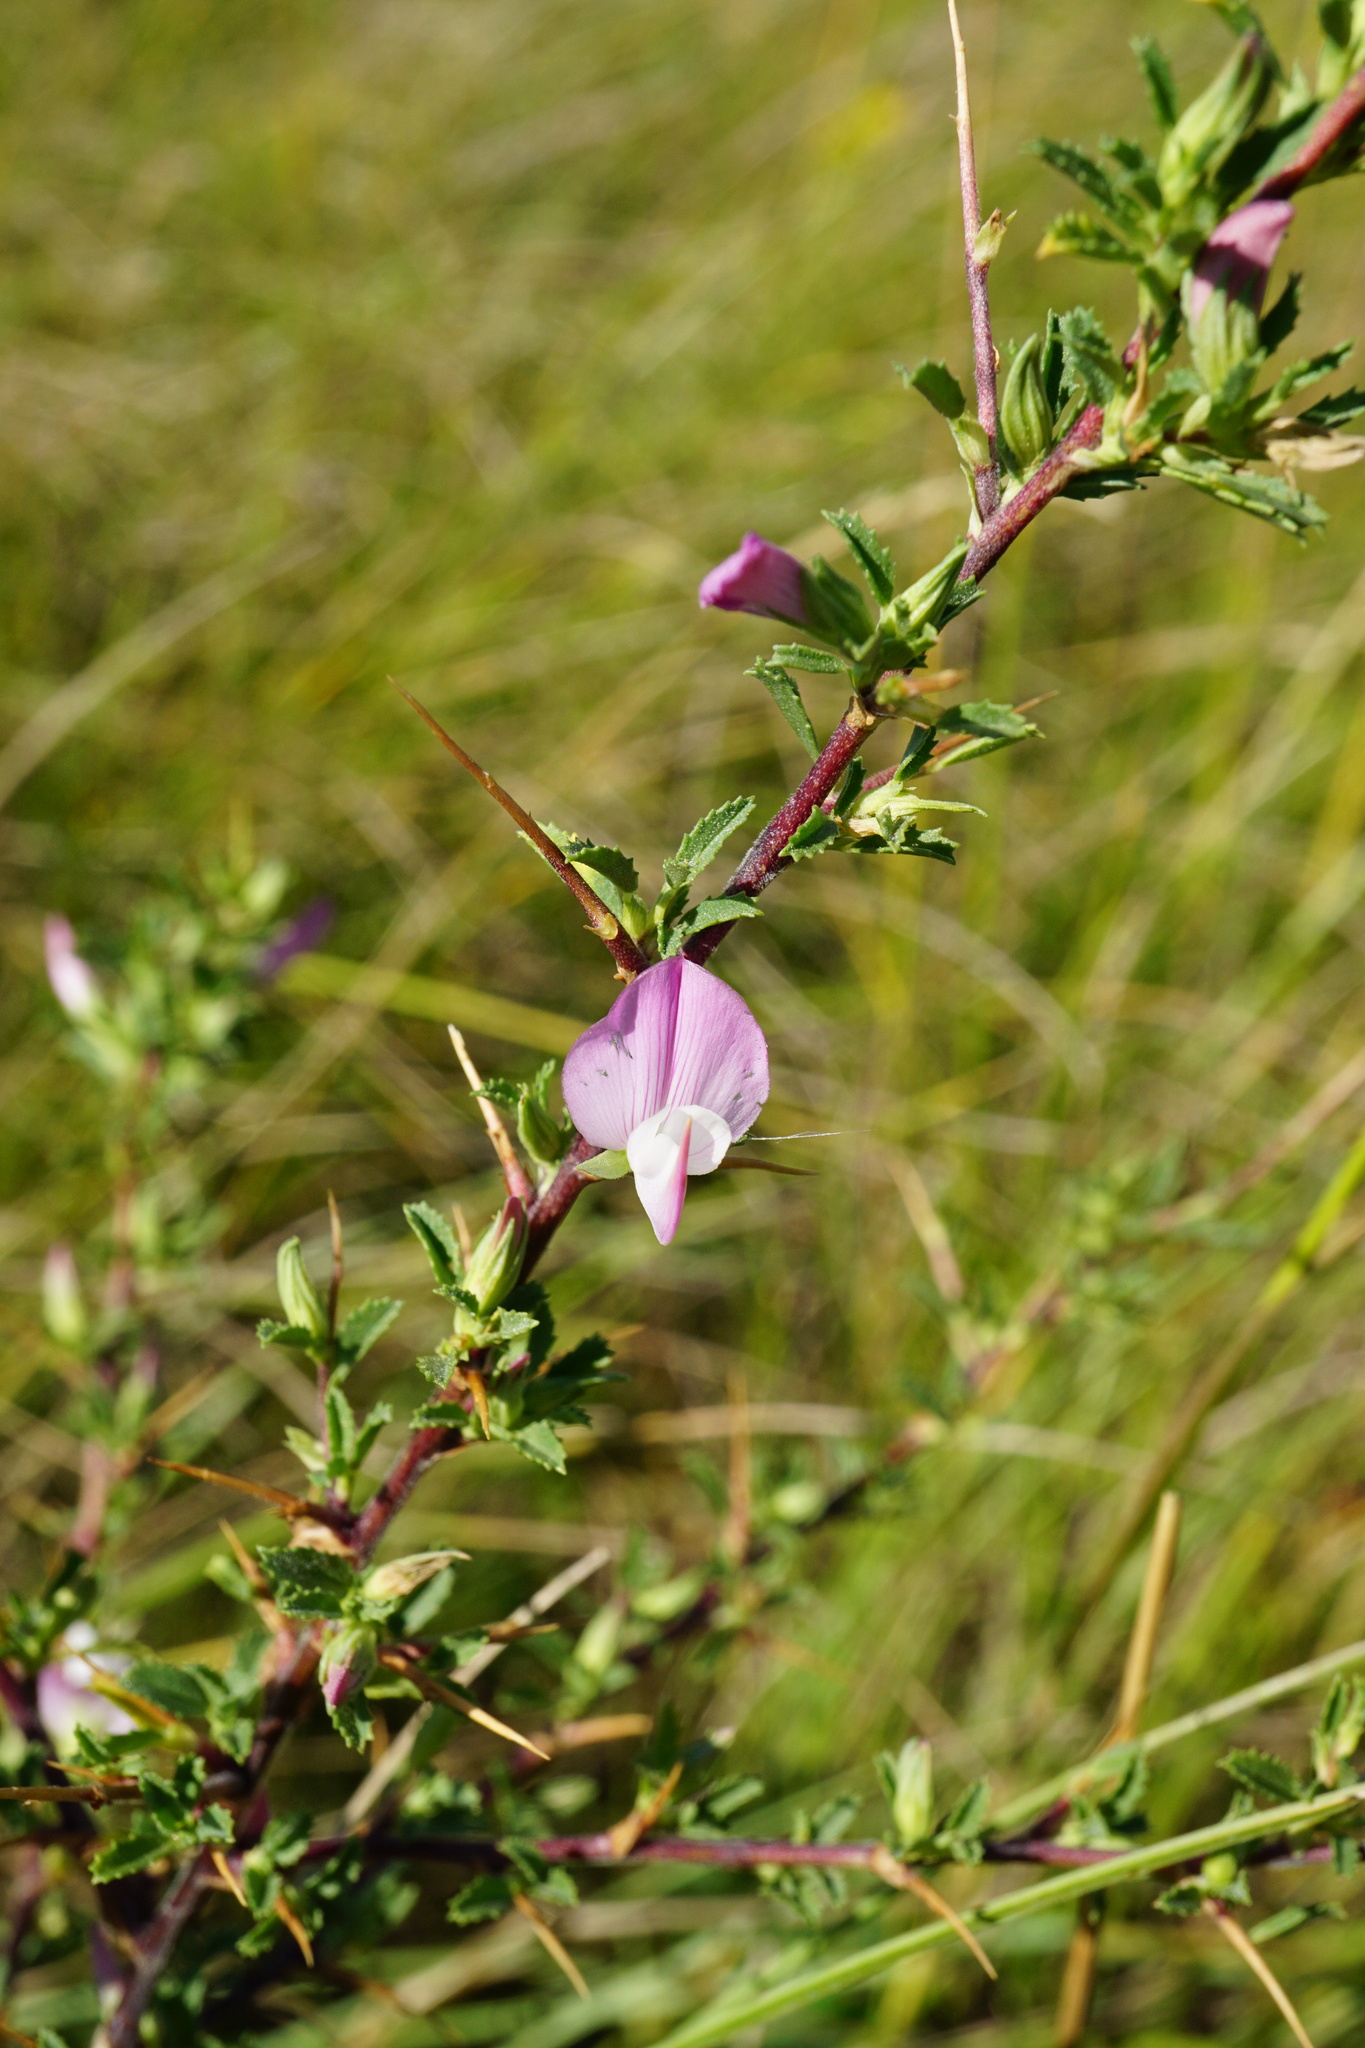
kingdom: Plantae
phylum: Tracheophyta
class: Magnoliopsida
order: Fabales
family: Fabaceae
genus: Ononis
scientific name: Ononis spinosa
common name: Spiny restharrow
